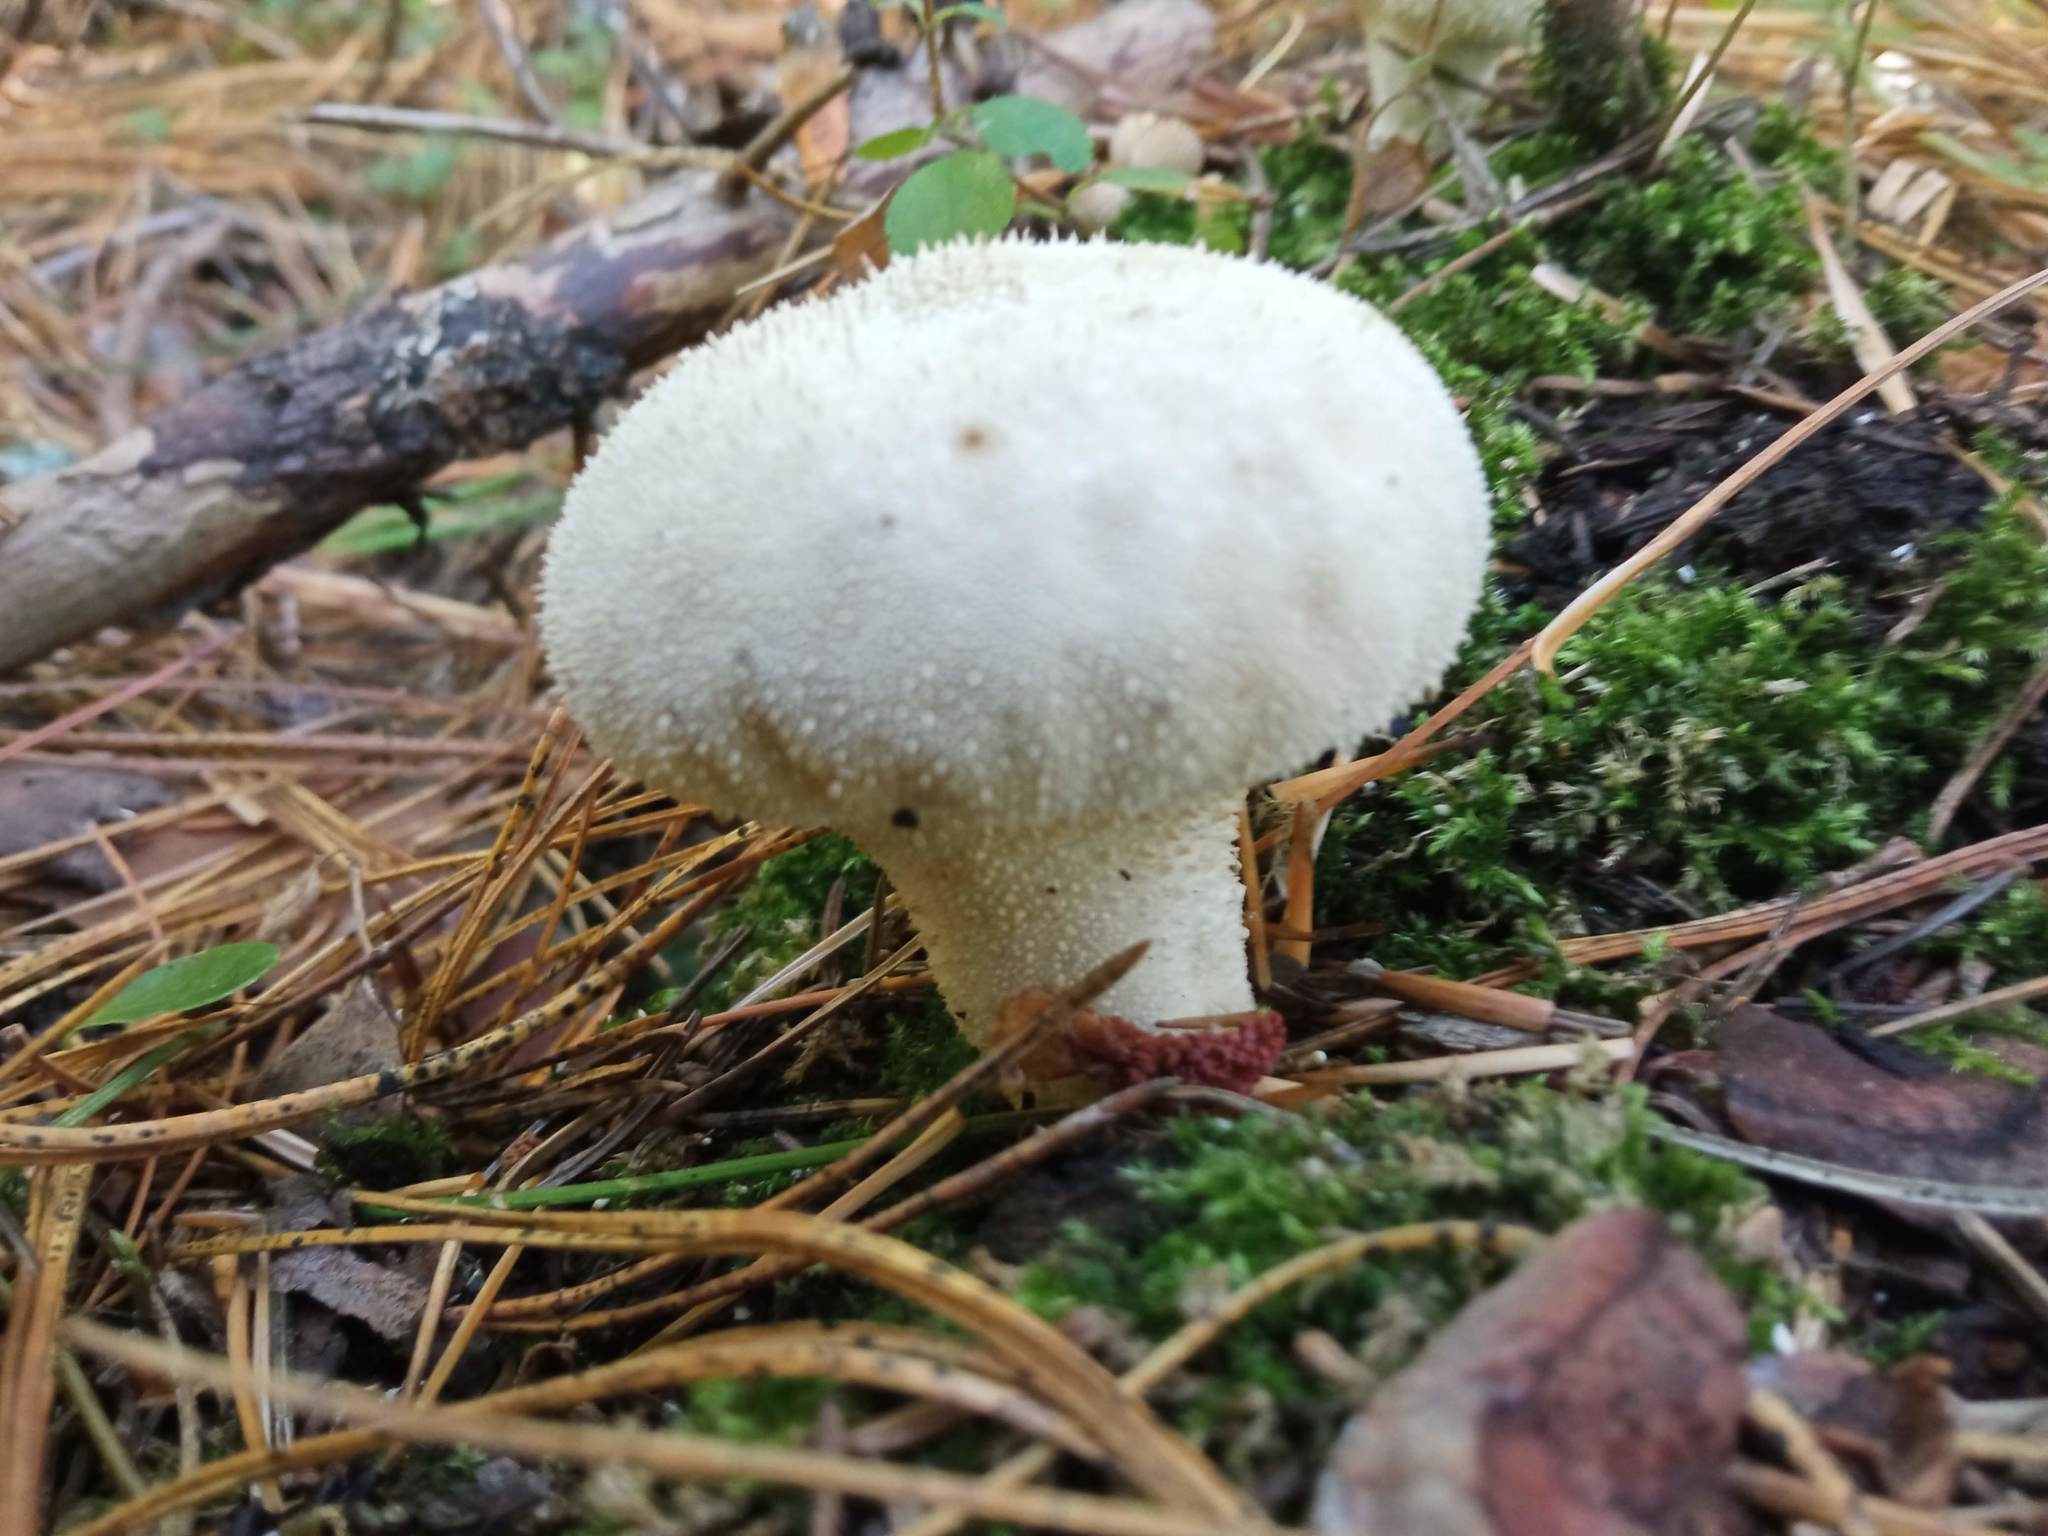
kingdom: Fungi
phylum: Basidiomycota
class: Agaricomycetes
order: Agaricales
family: Lycoperdaceae
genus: Lycoperdon
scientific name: Lycoperdon perlatum
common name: Common puffball
